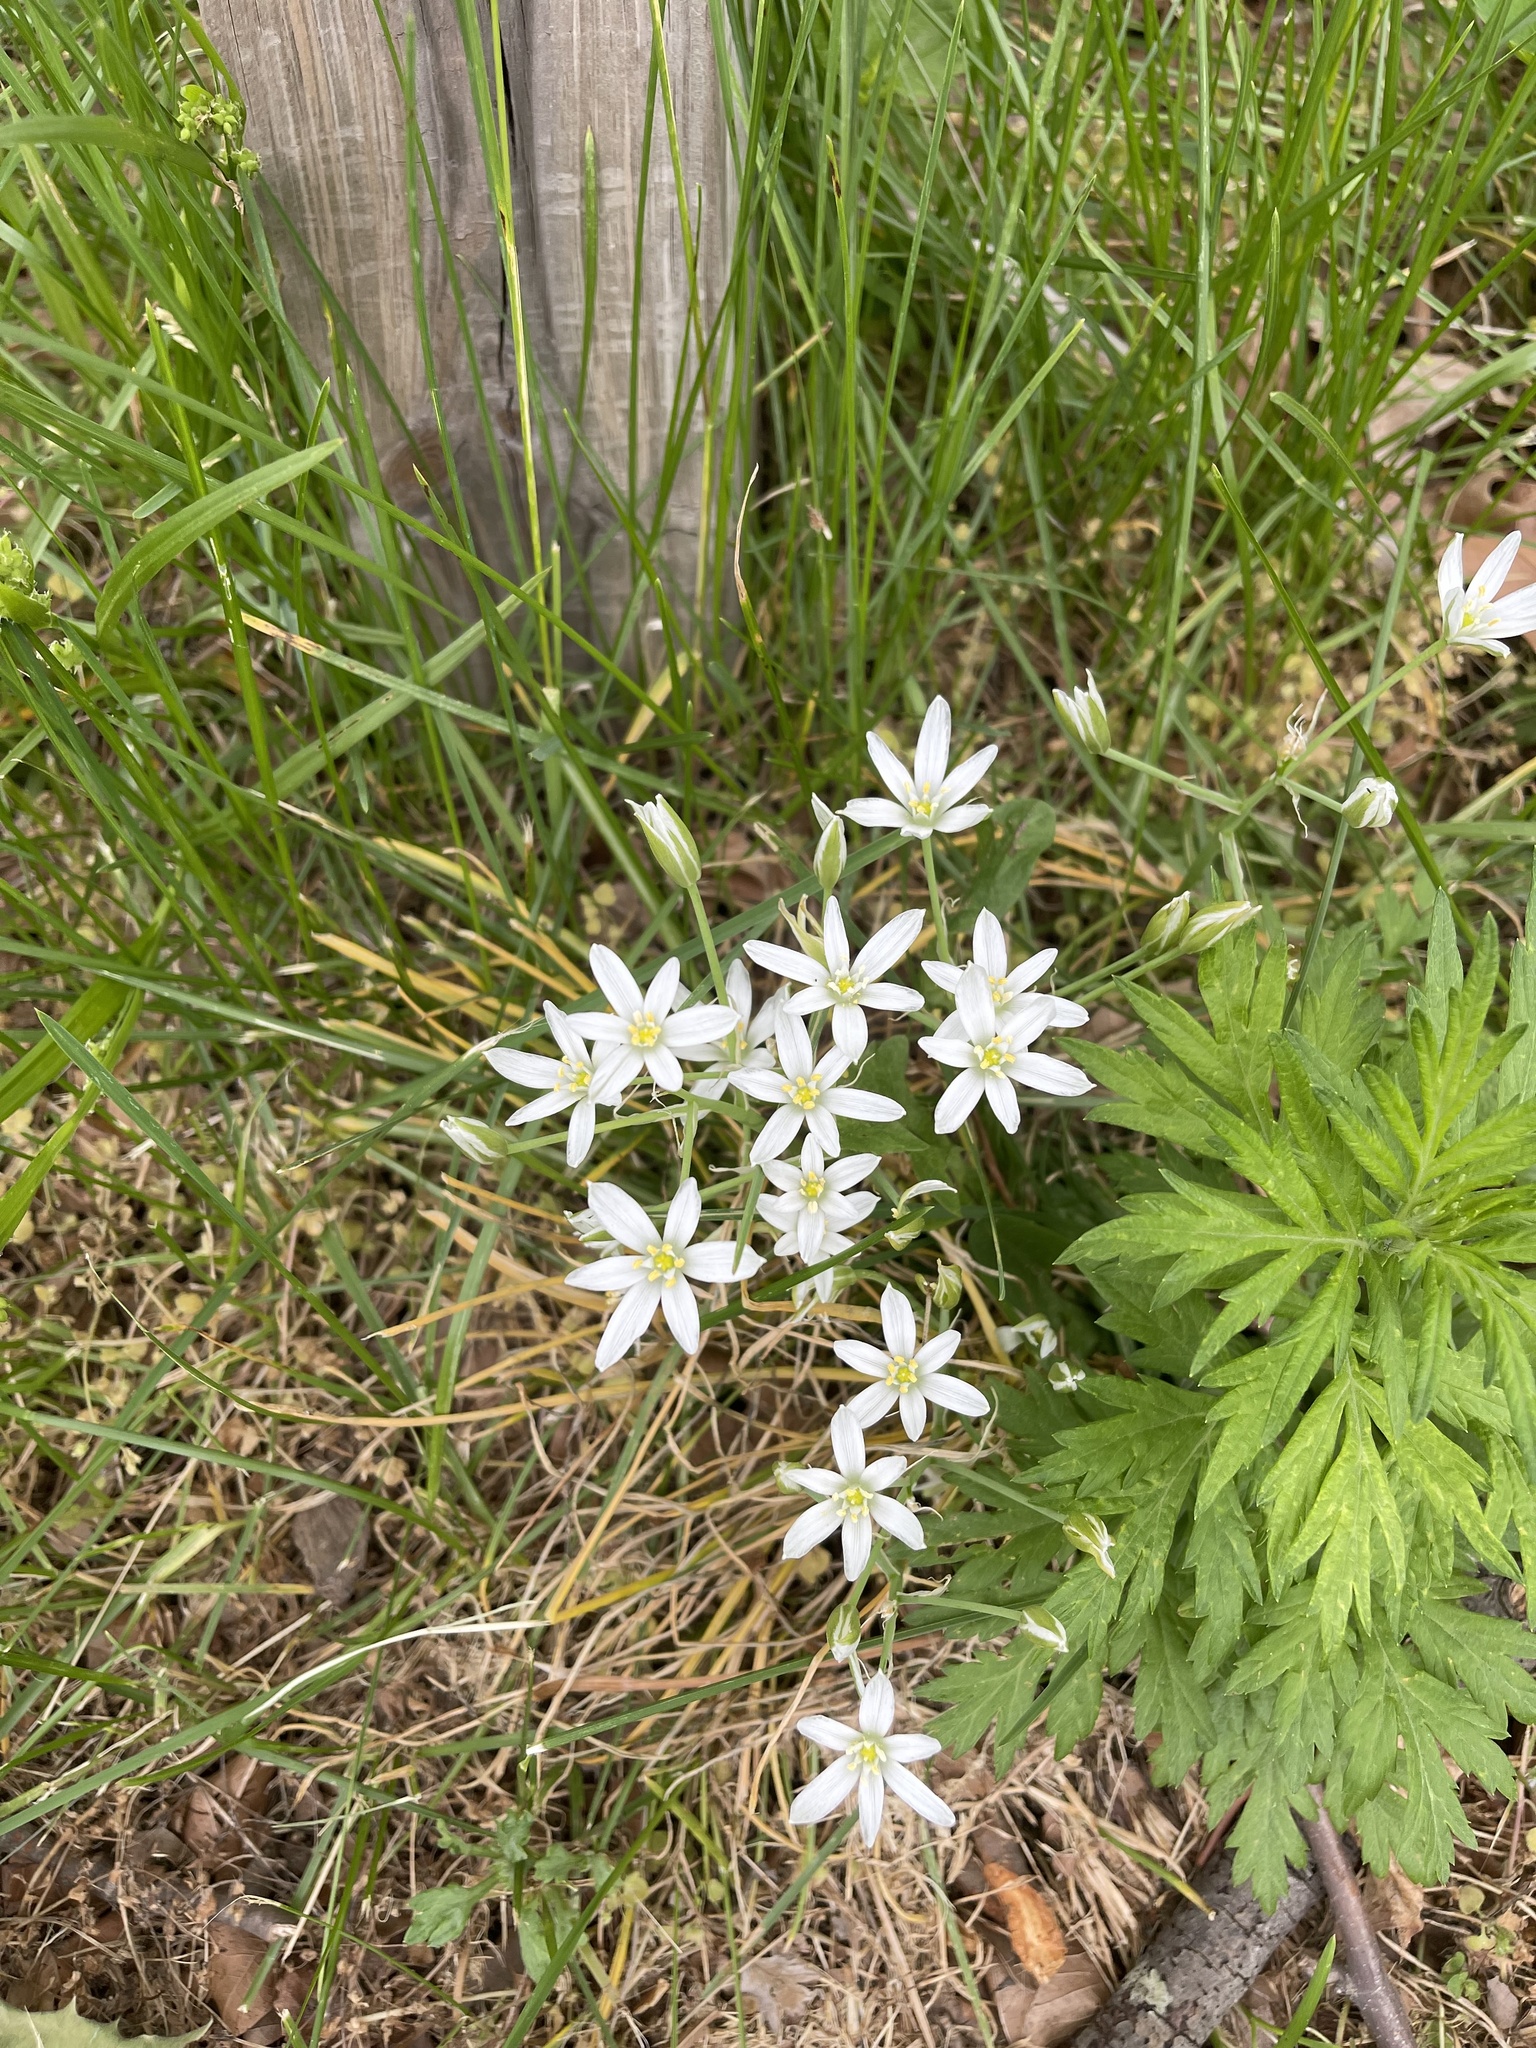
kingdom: Plantae
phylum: Tracheophyta
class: Liliopsida
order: Asparagales
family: Asparagaceae
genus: Ornithogalum
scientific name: Ornithogalum umbellatum
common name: Garden star-of-bethlehem
